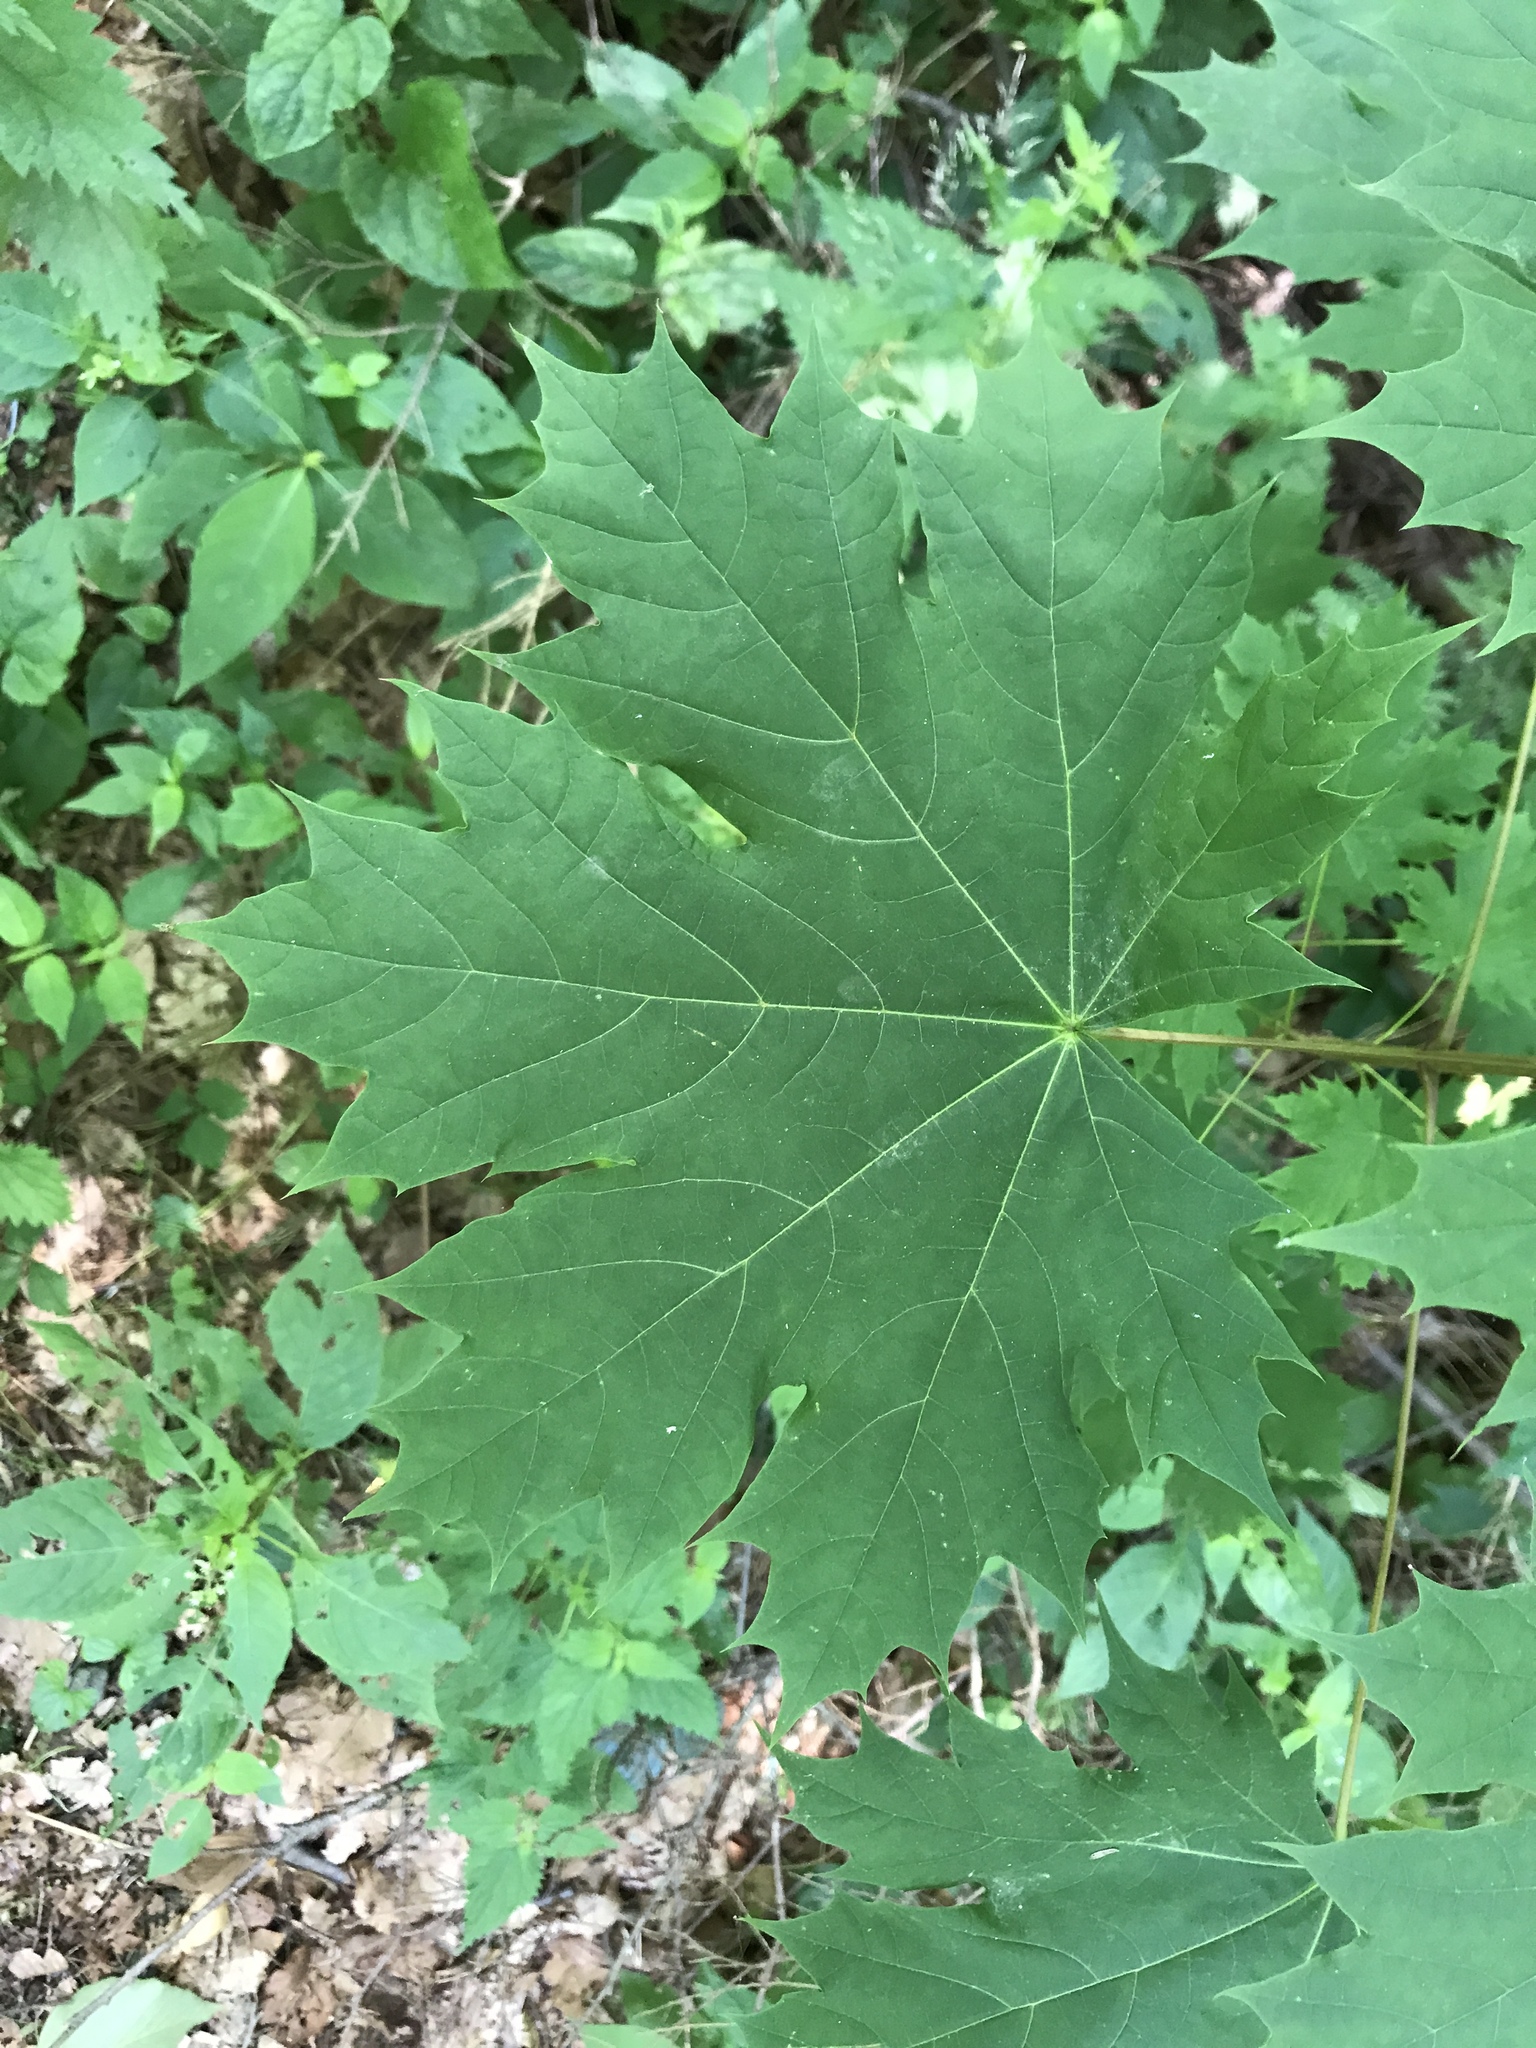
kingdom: Plantae
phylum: Tracheophyta
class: Magnoliopsida
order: Sapindales
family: Sapindaceae
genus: Acer
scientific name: Acer platanoides
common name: Norway maple
